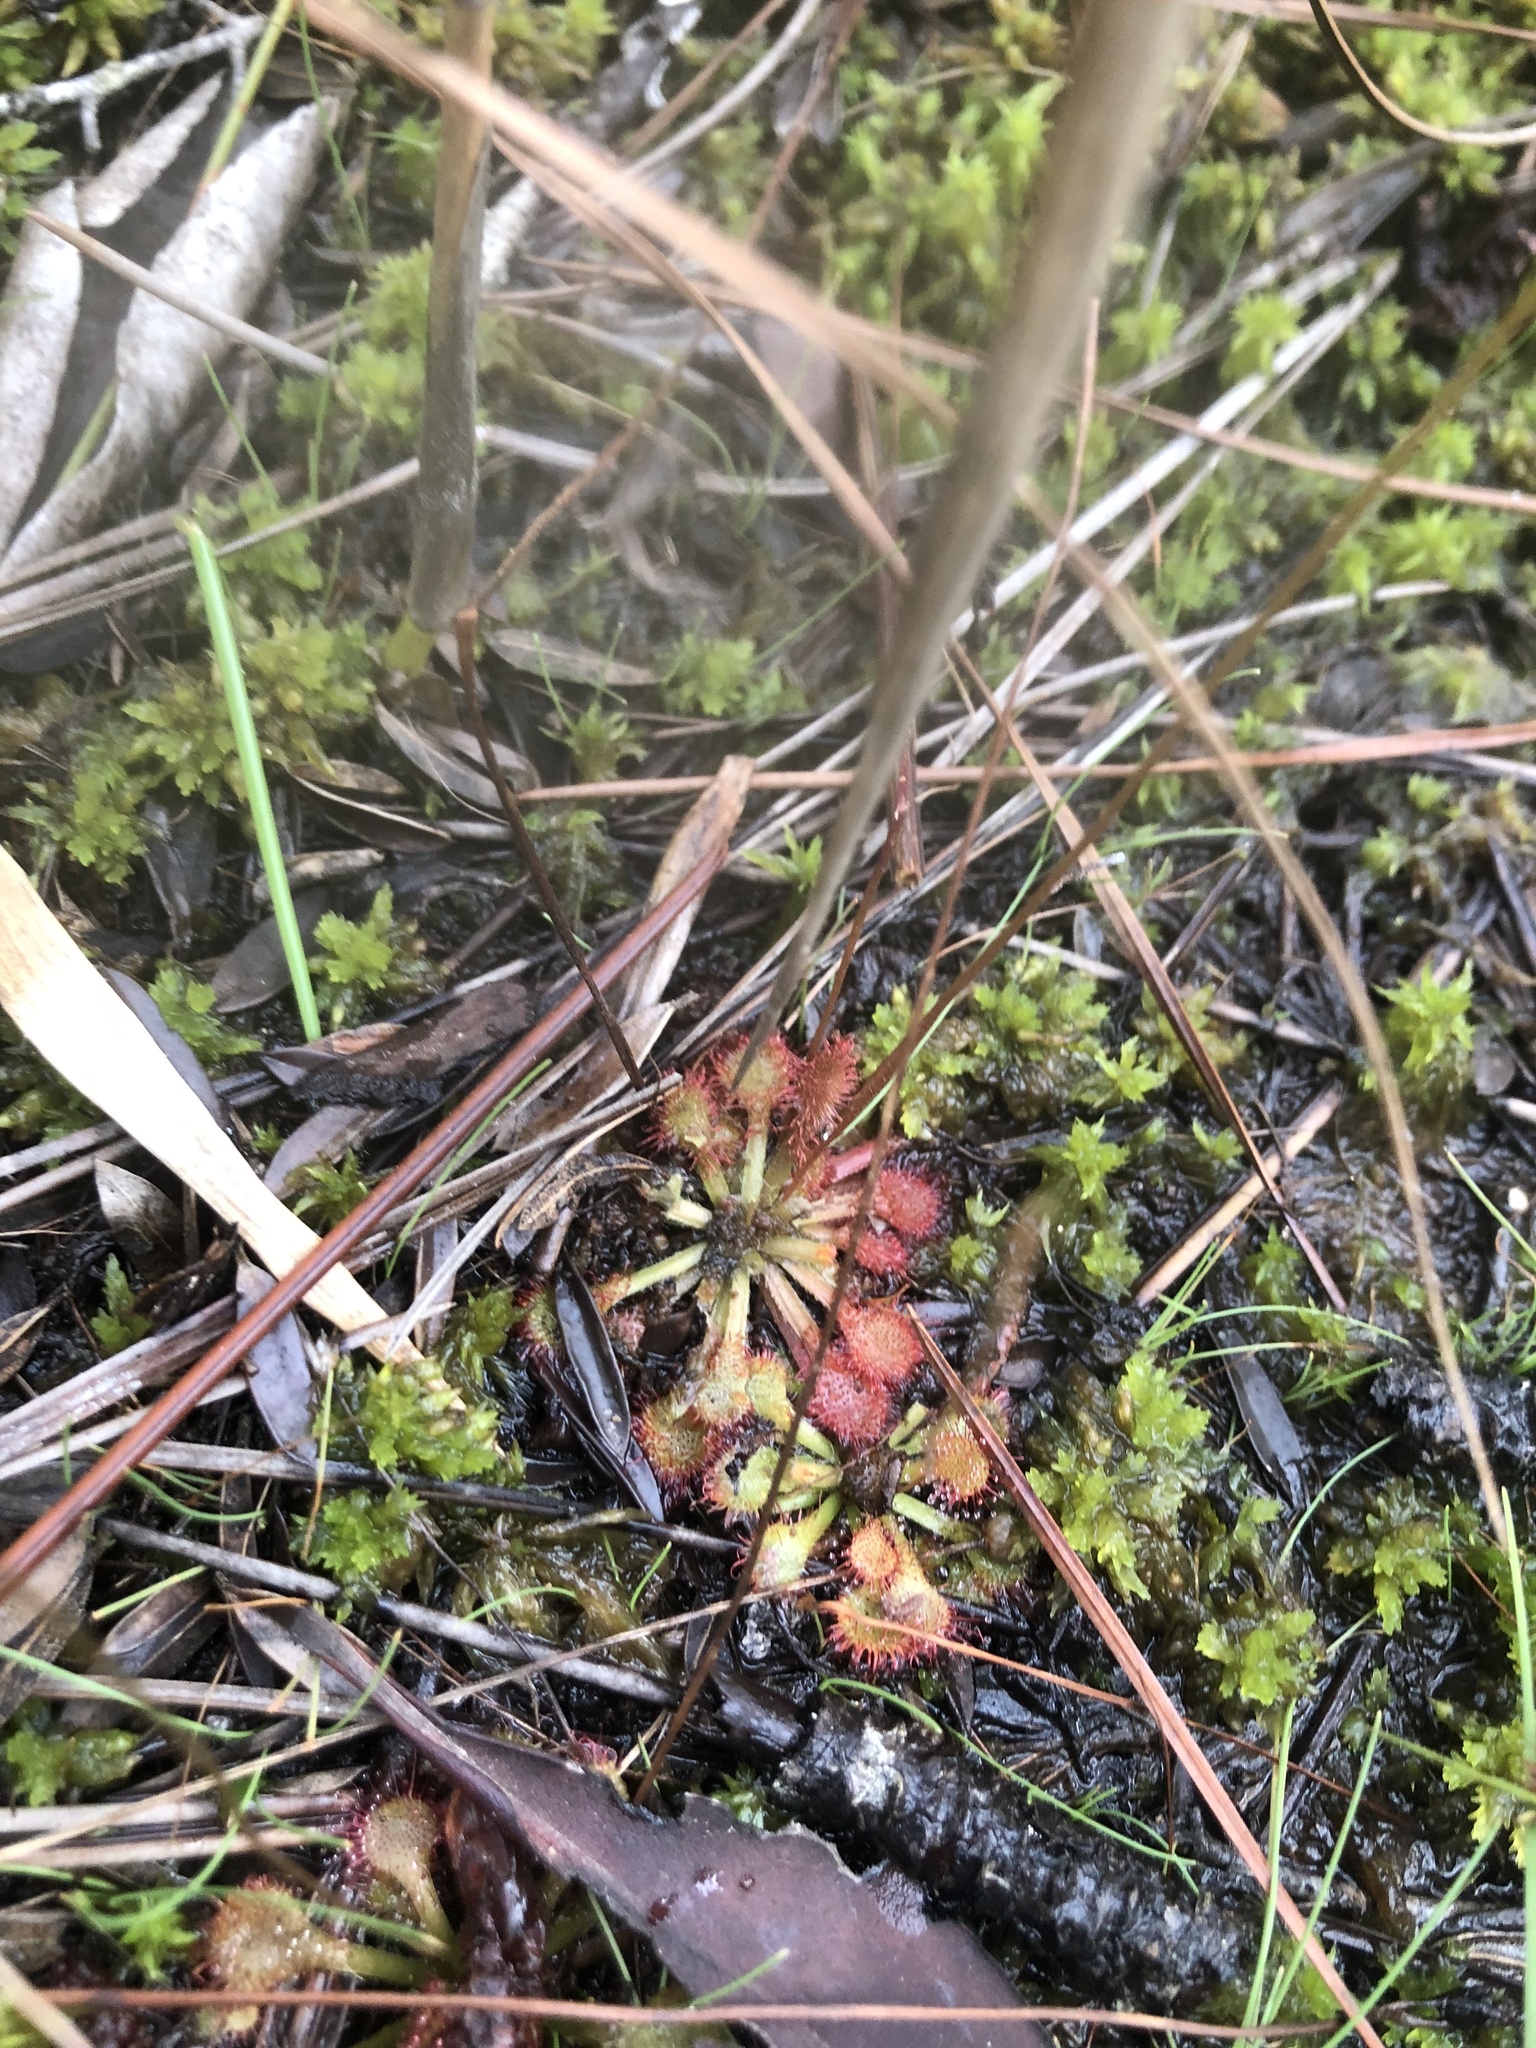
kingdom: Plantae
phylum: Tracheophyta
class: Magnoliopsida
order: Caryophyllales
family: Droseraceae
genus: Drosera
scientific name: Drosera capillaris
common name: Pink sundew
